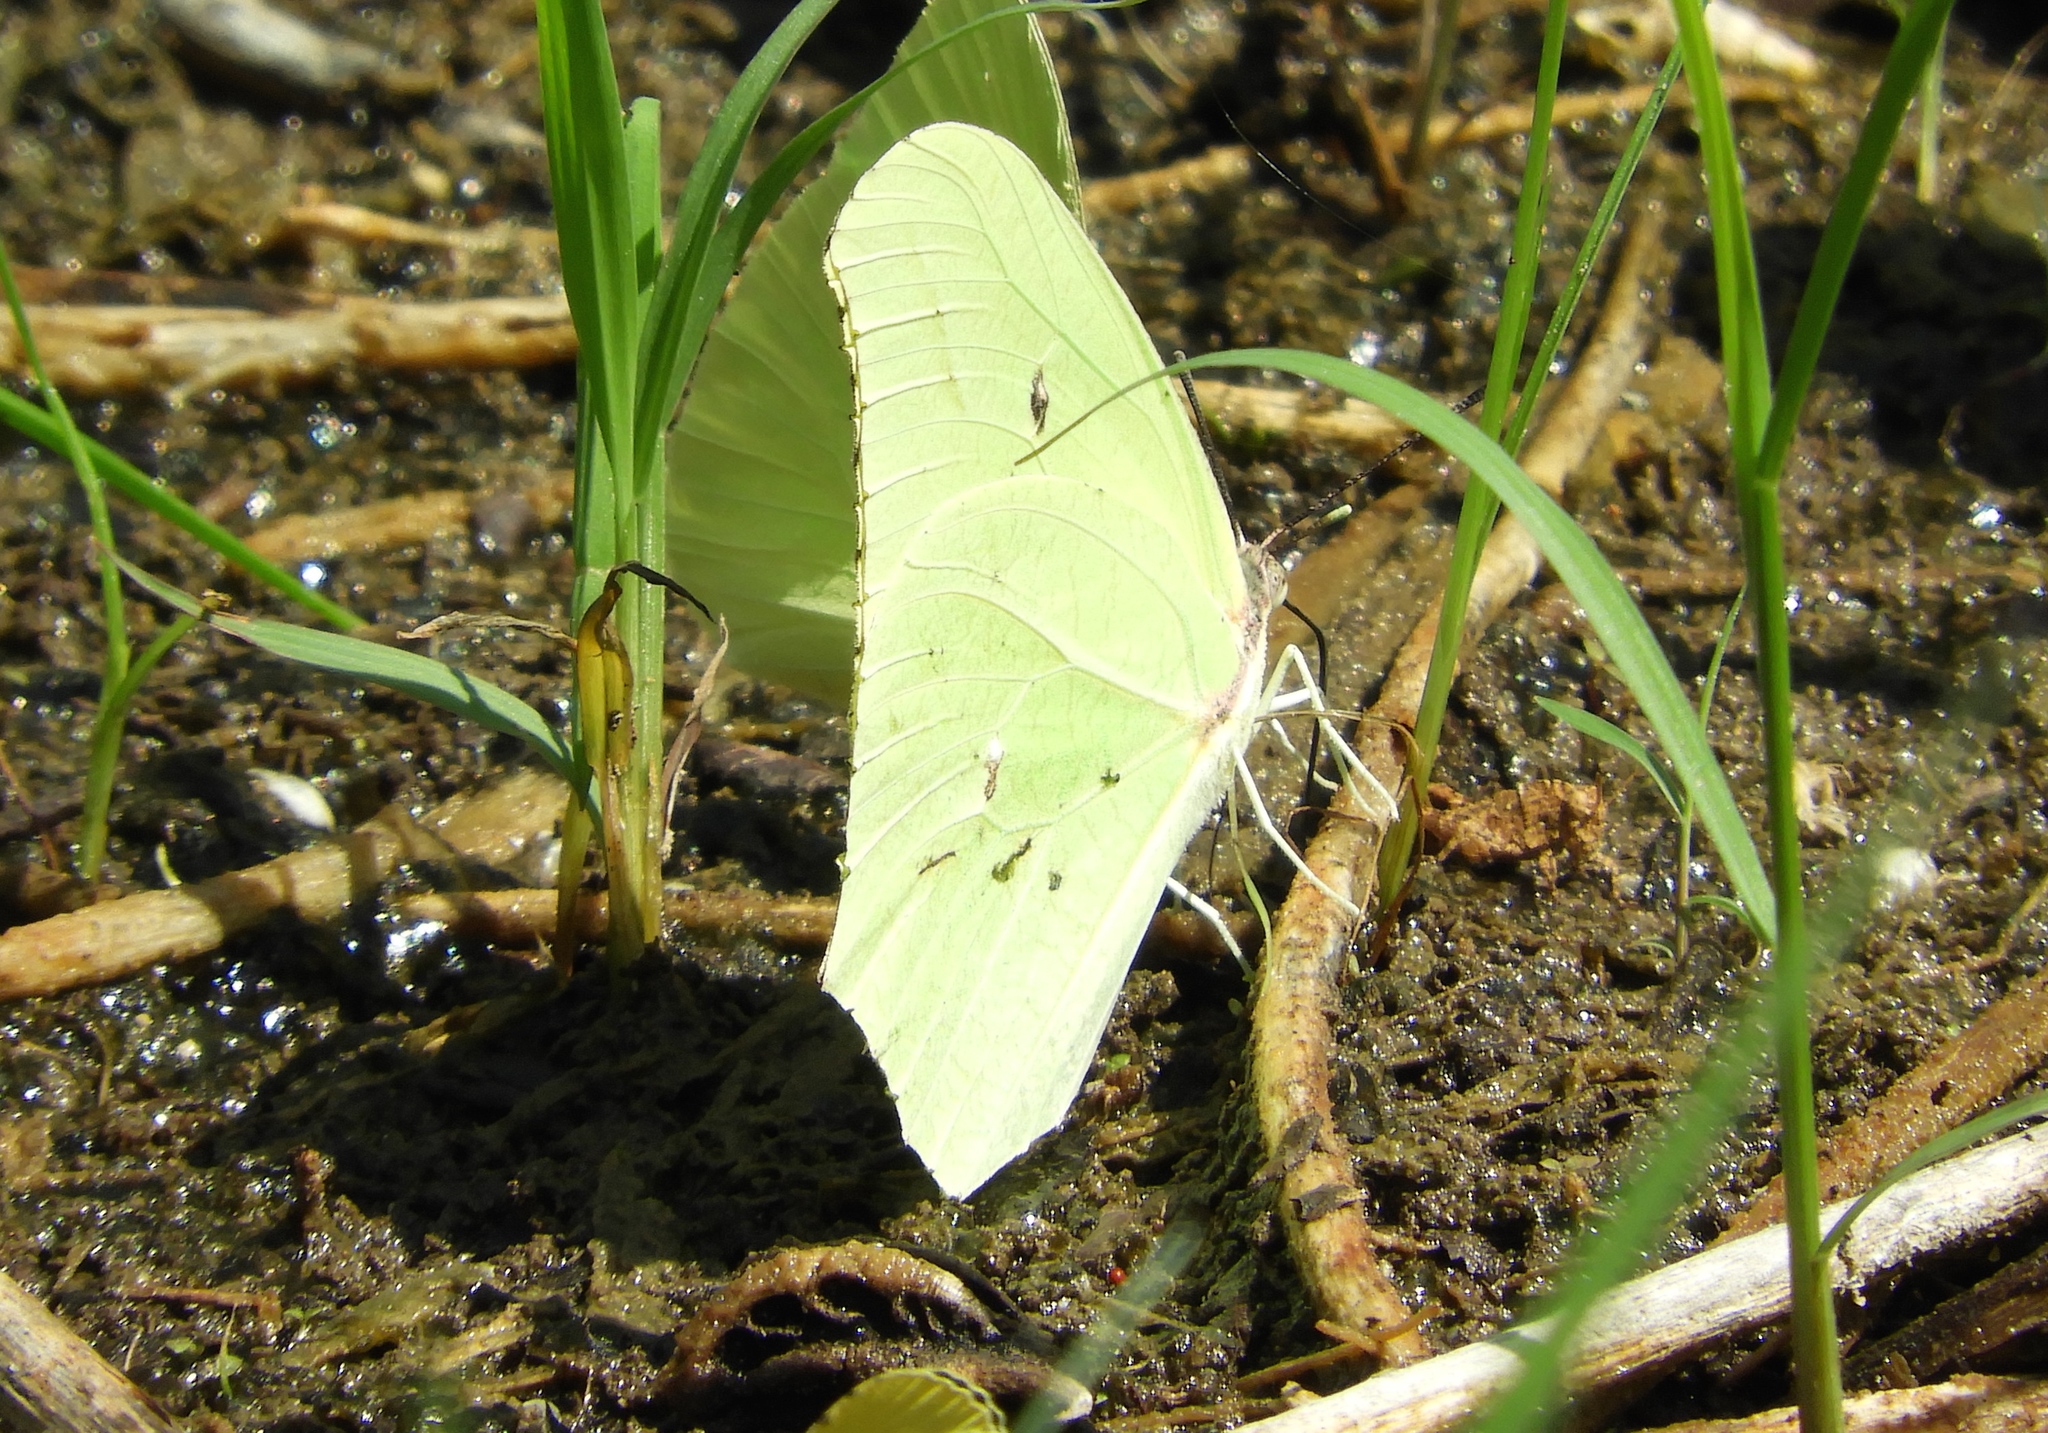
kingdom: Animalia
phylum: Arthropoda
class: Insecta
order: Lepidoptera
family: Pieridae
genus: Anteos
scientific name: Anteos maerula
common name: Angled sulphur
